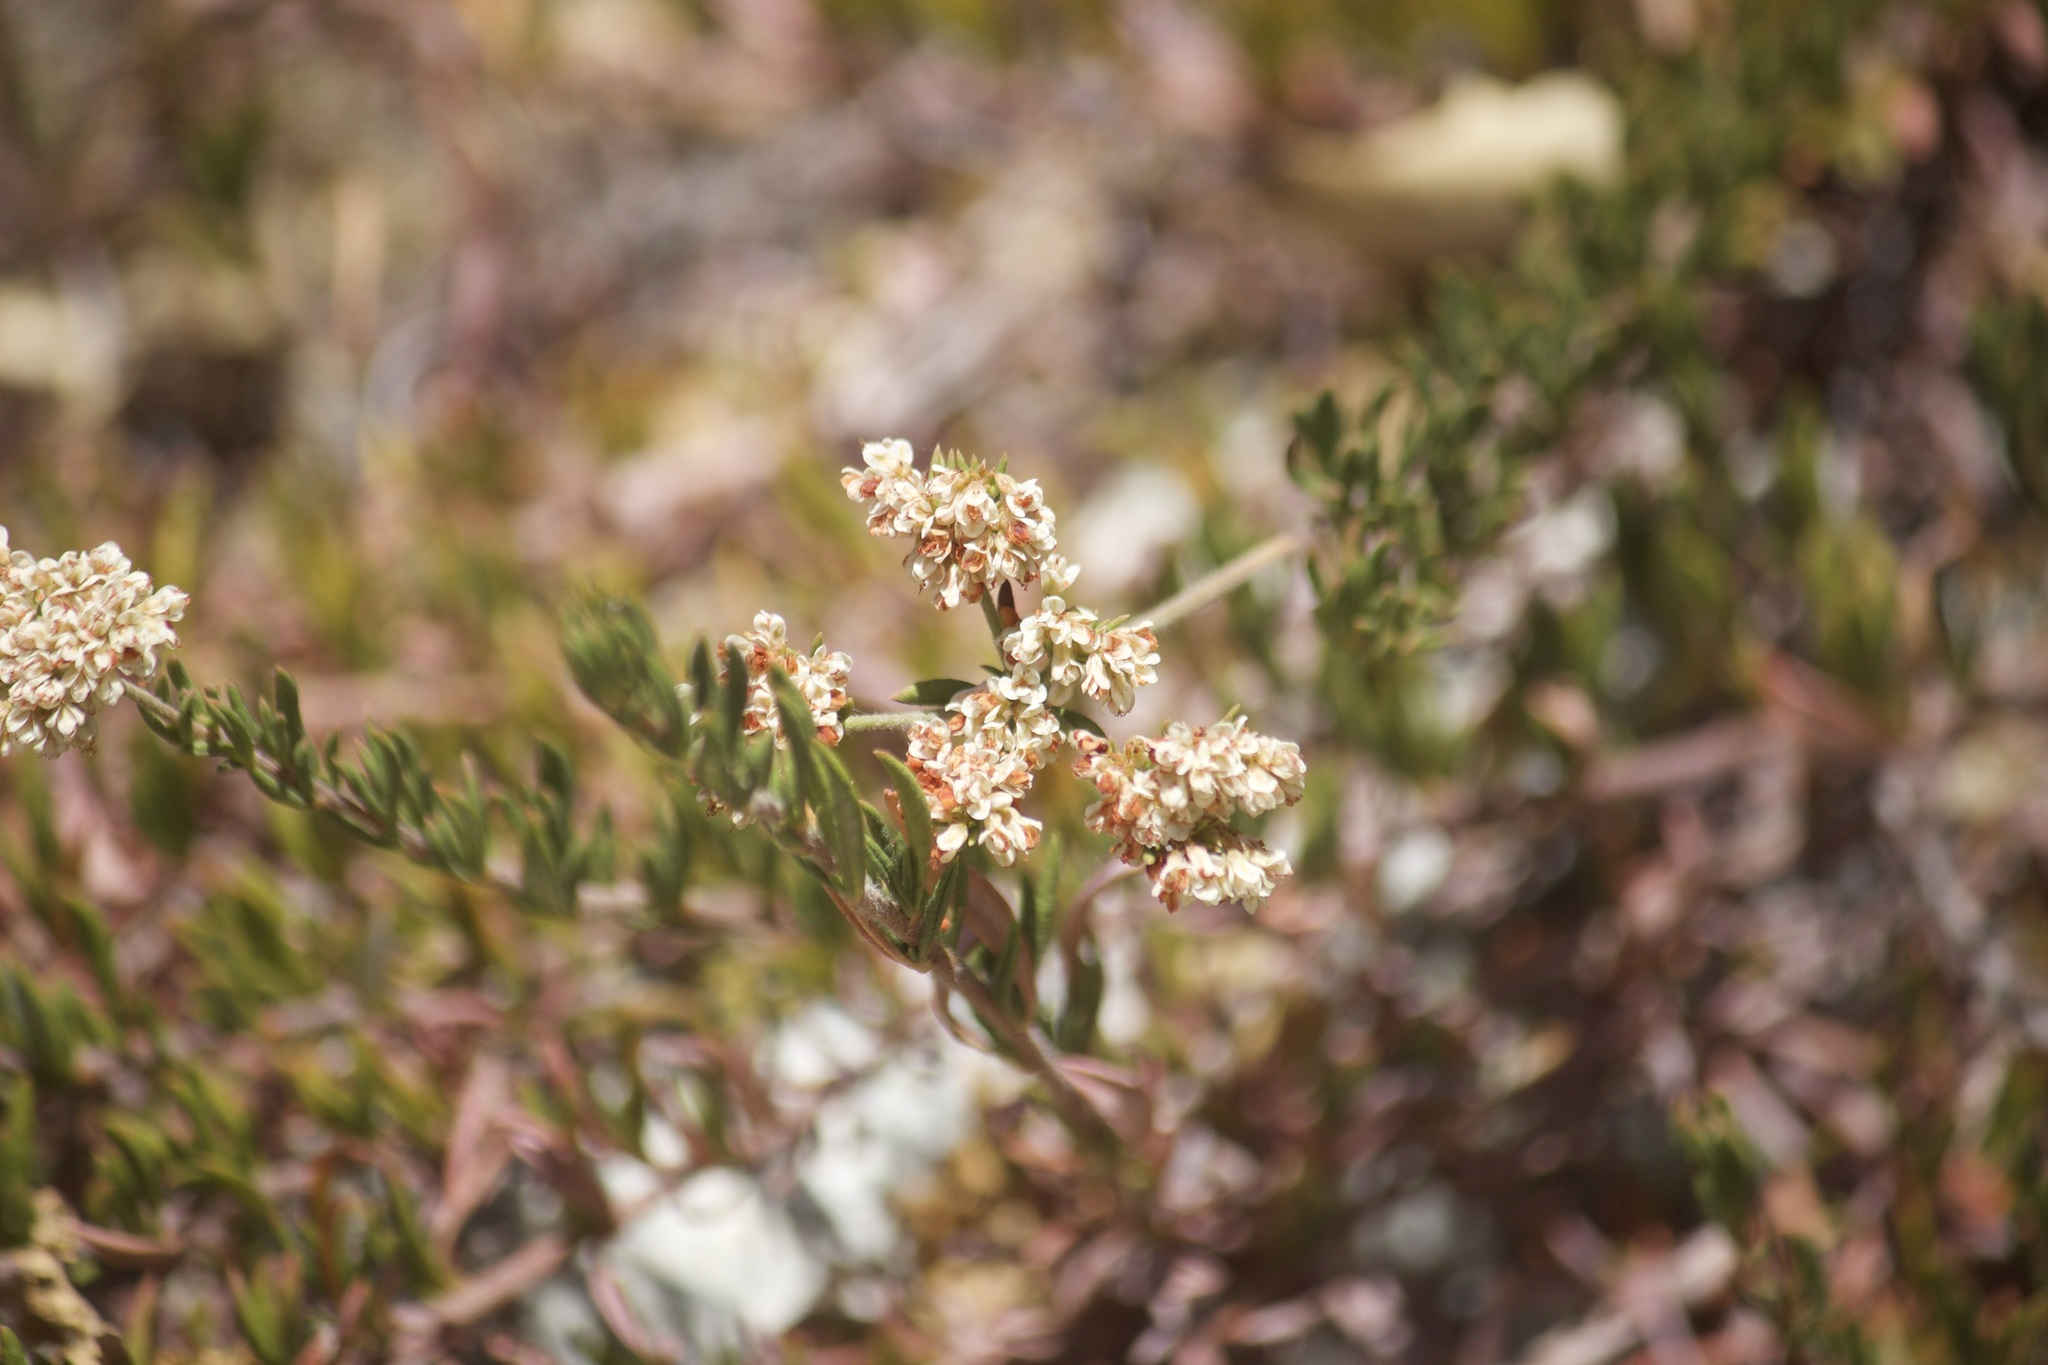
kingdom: Plantae
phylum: Tracheophyta
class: Magnoliopsida
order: Caryophyllales
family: Polygonaceae
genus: Eriogonum
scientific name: Eriogonum fasciculatum
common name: California wild buckwheat
